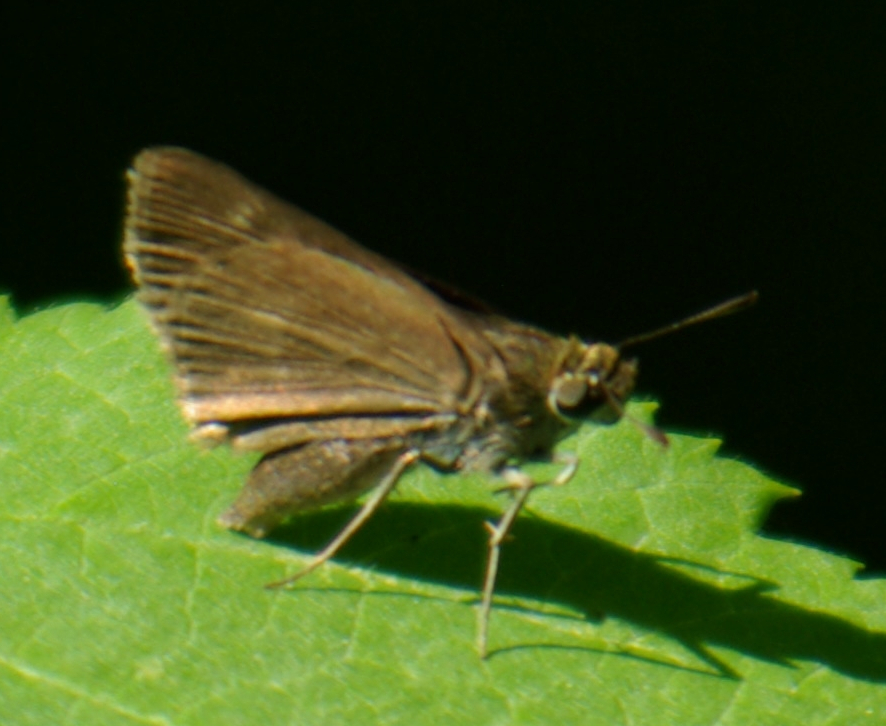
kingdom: Animalia
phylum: Arthropoda
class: Insecta
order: Lepidoptera
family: Hesperiidae
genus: Euphyes
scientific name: Euphyes vestris
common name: Dun skipper
